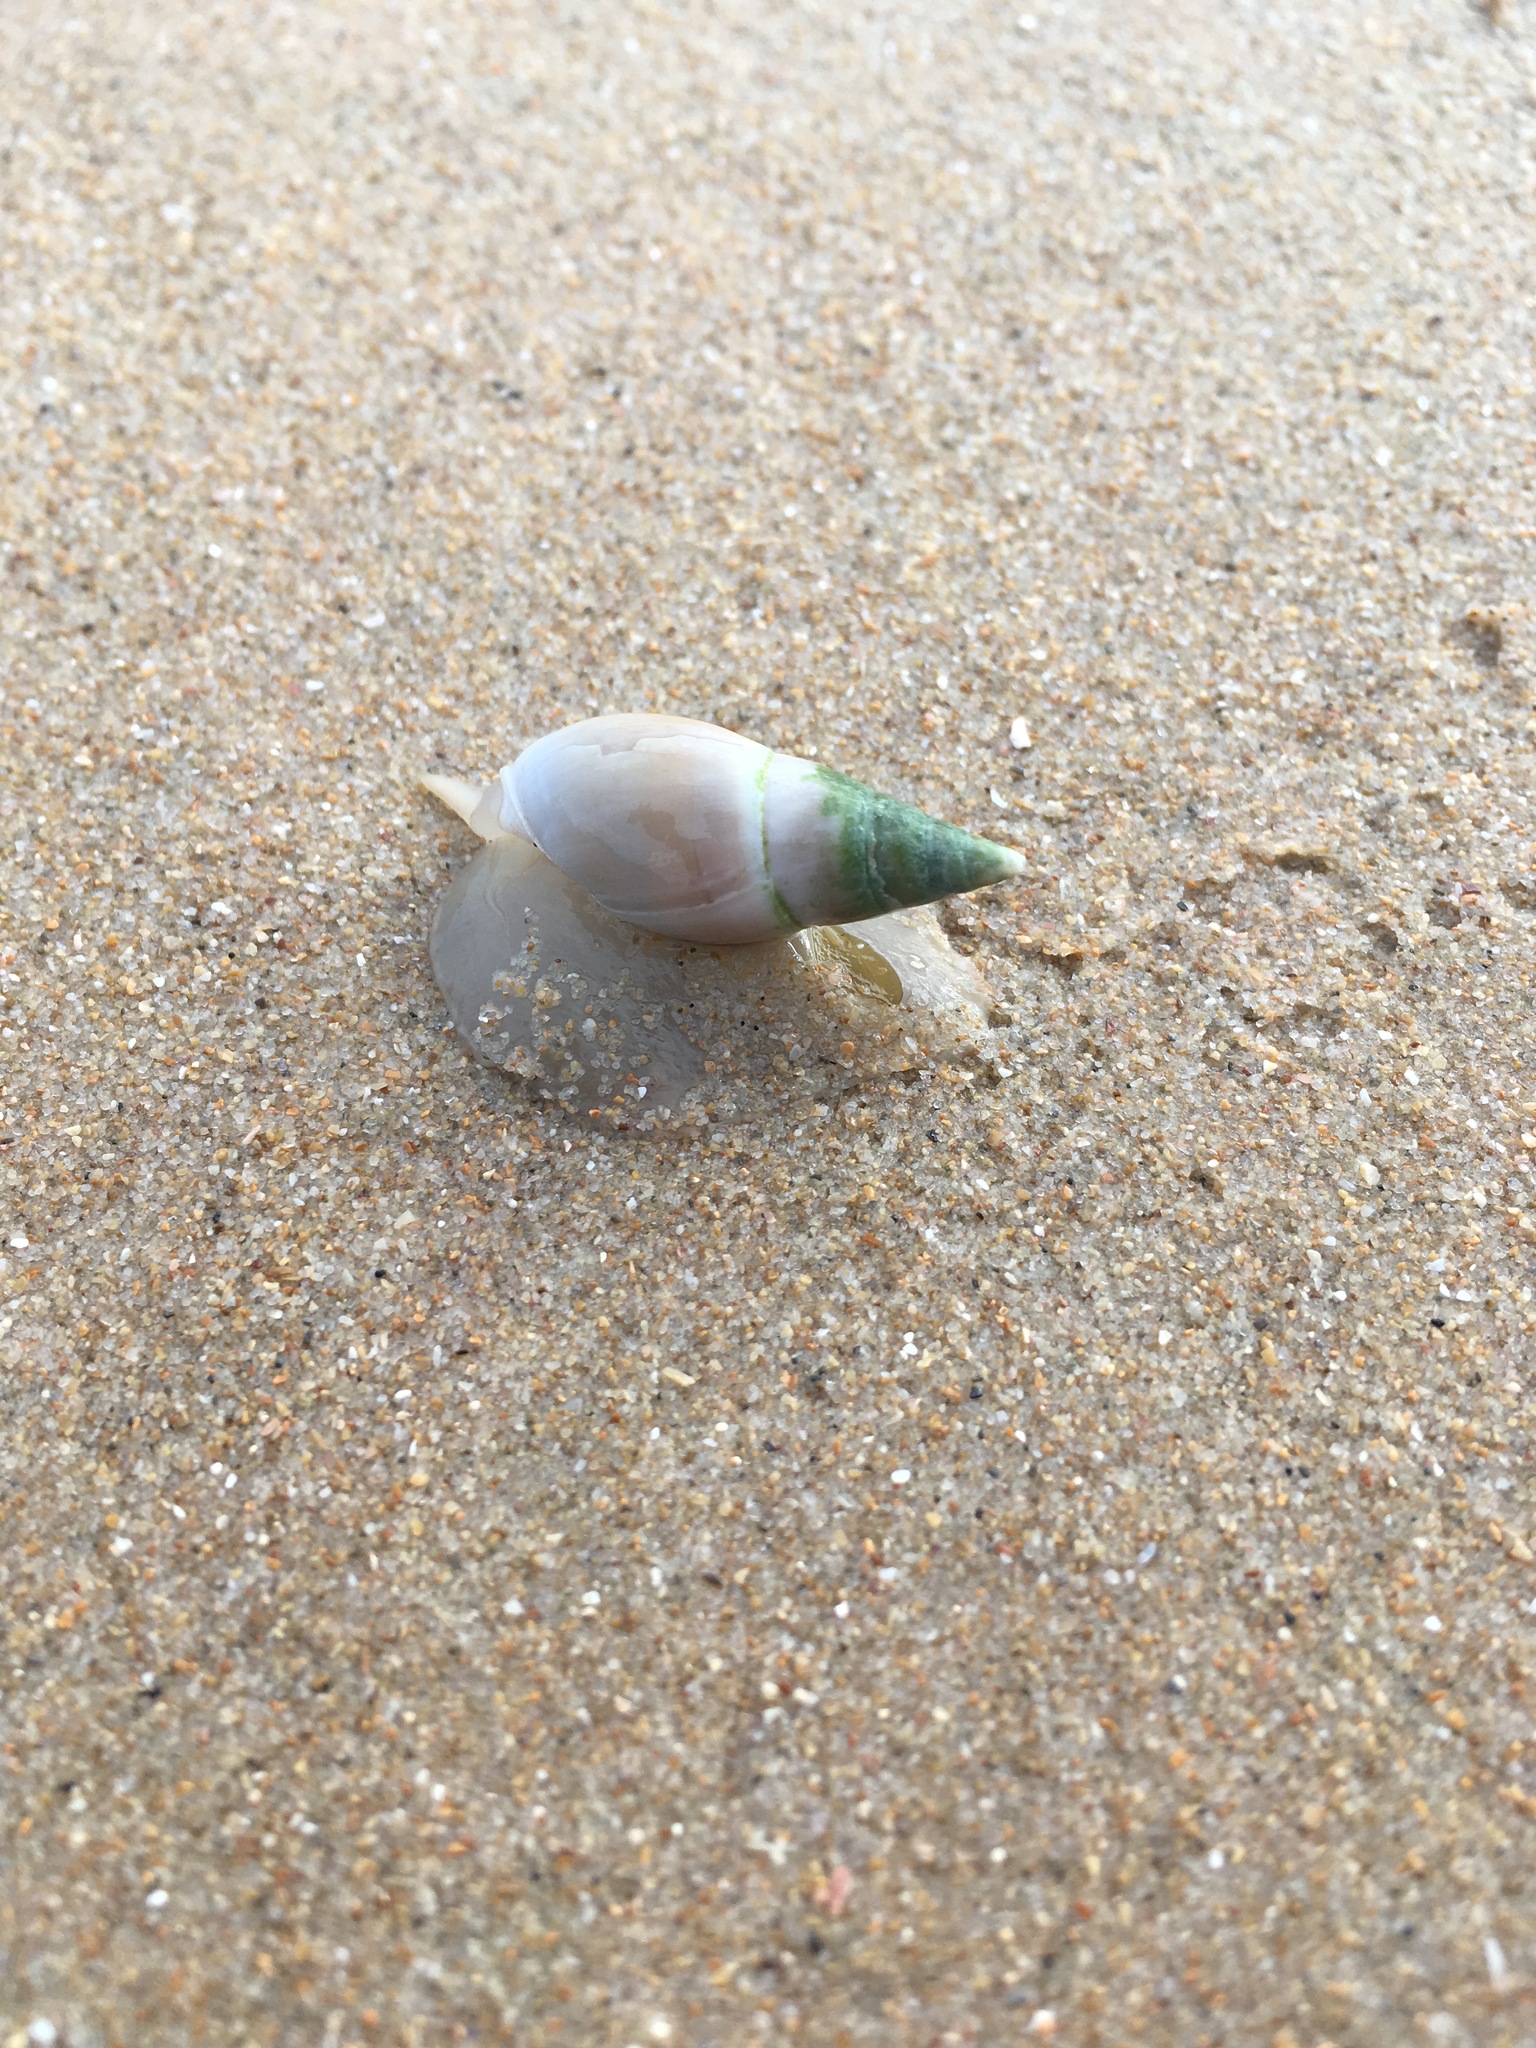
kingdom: Animalia
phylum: Mollusca
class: Gastropoda
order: Neogastropoda
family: Nassariidae
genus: Bullia
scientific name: Bullia rhodostoma
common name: Smooth plough shell
